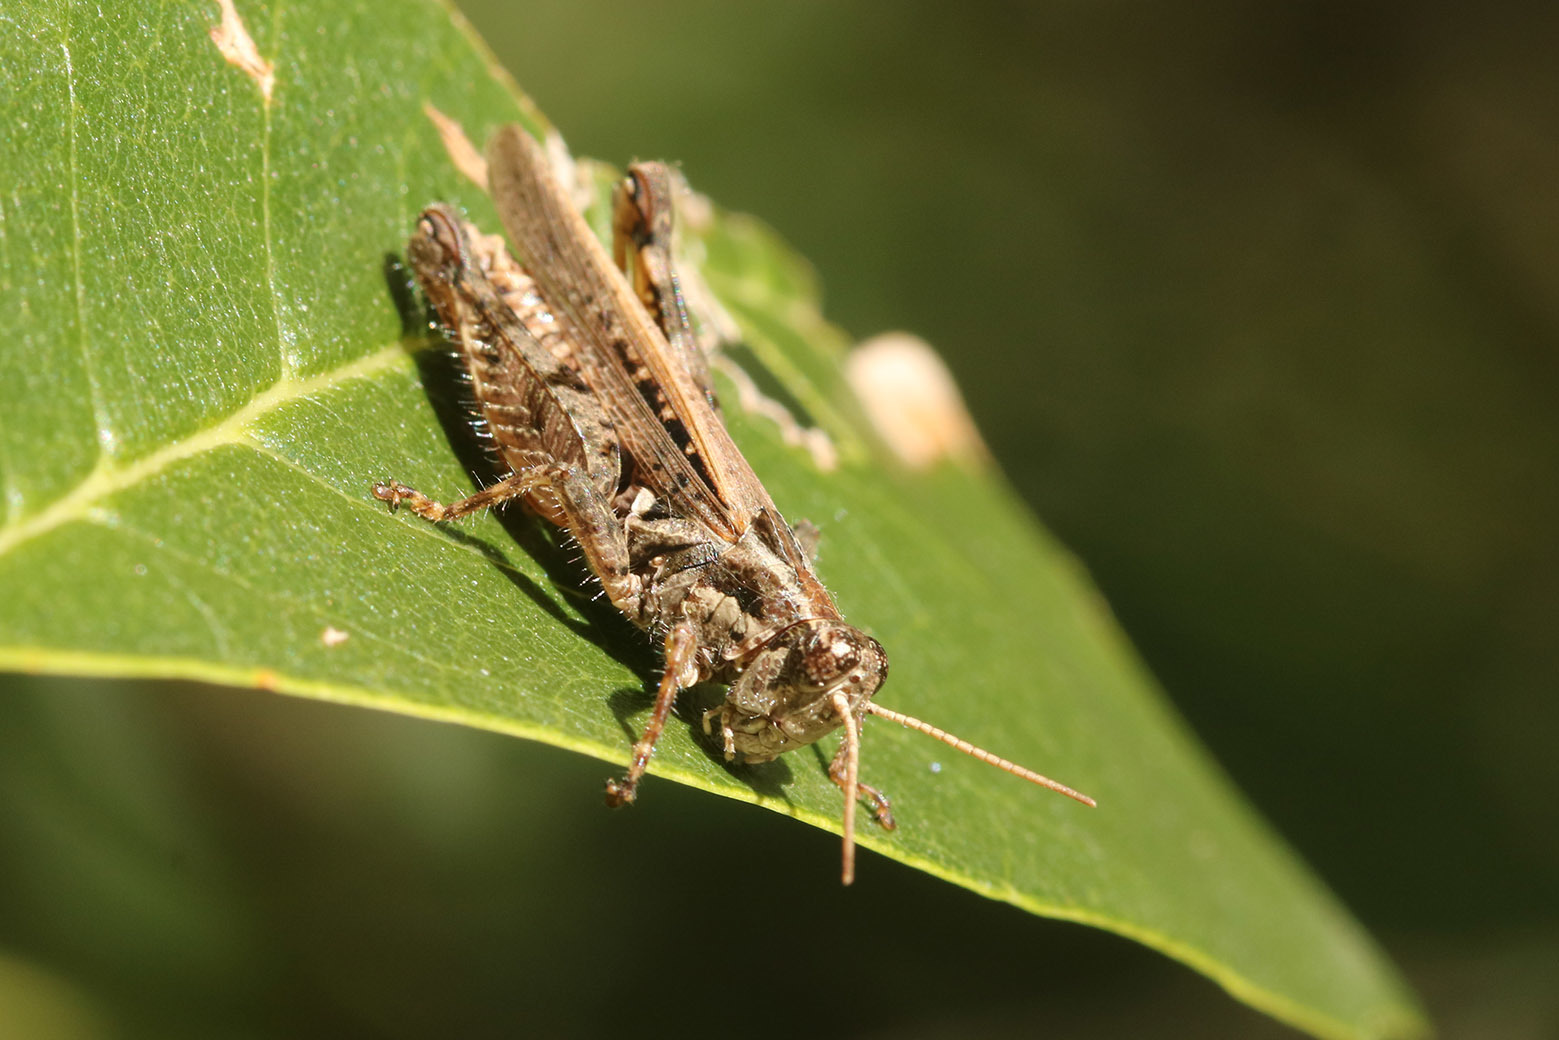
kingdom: Animalia
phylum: Arthropoda
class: Insecta
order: Orthoptera
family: Acrididae
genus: Baeacris
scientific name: Baeacris
